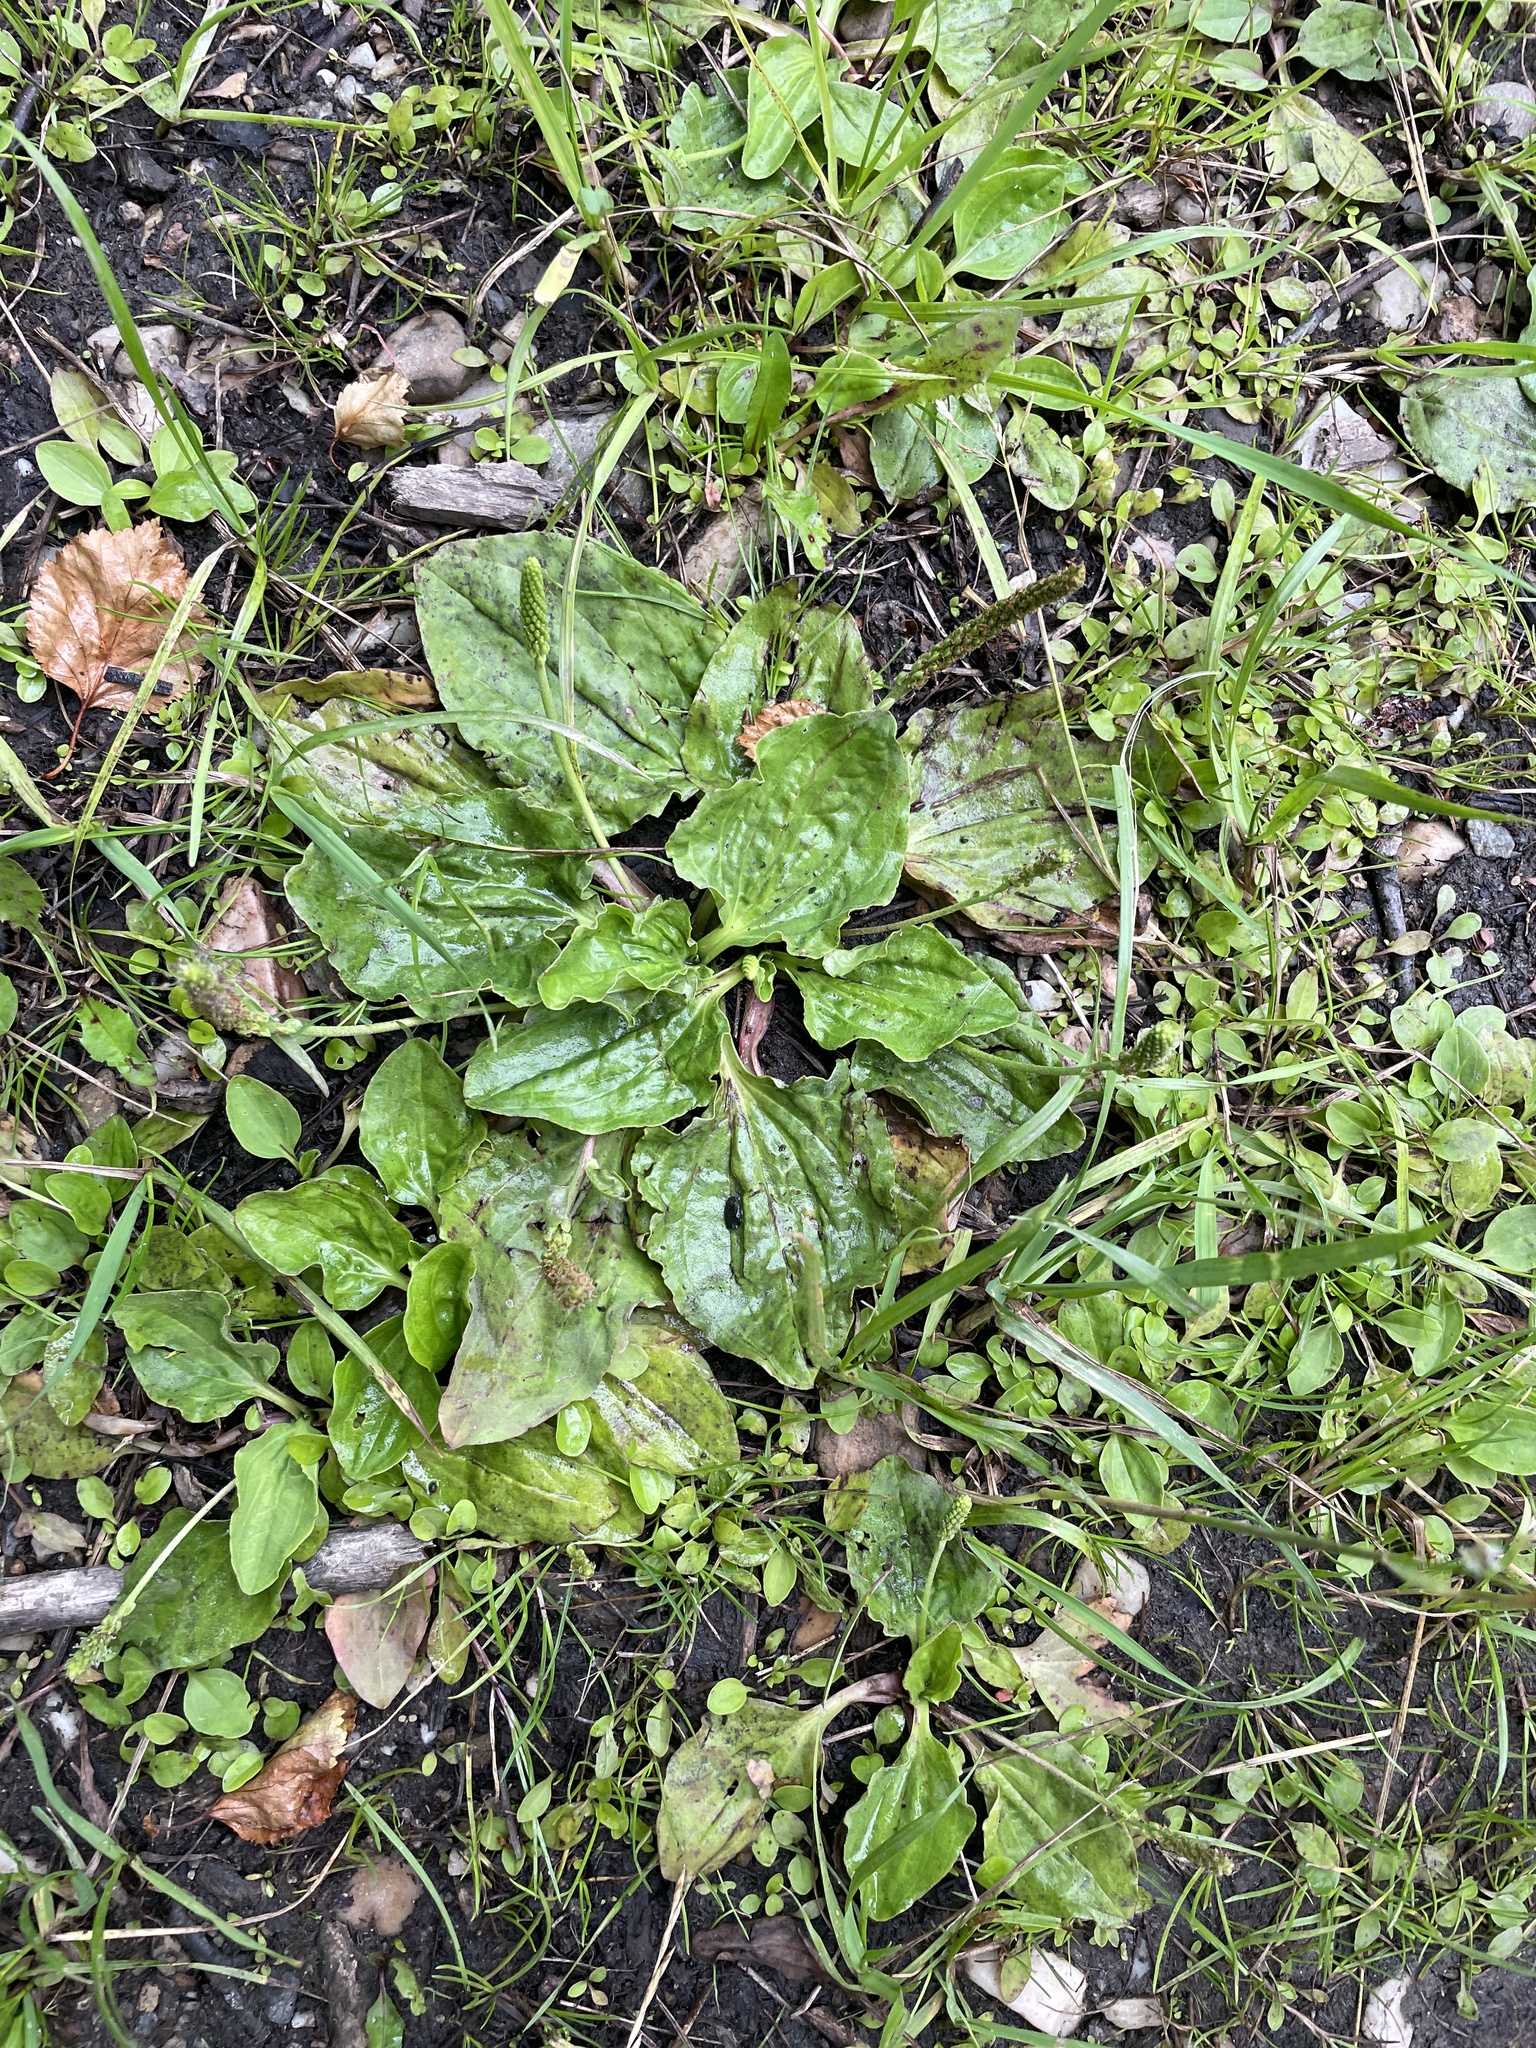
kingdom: Plantae
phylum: Tracheophyta
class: Magnoliopsida
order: Lamiales
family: Plantaginaceae
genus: Plantago
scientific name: Plantago major
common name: Common plantain
